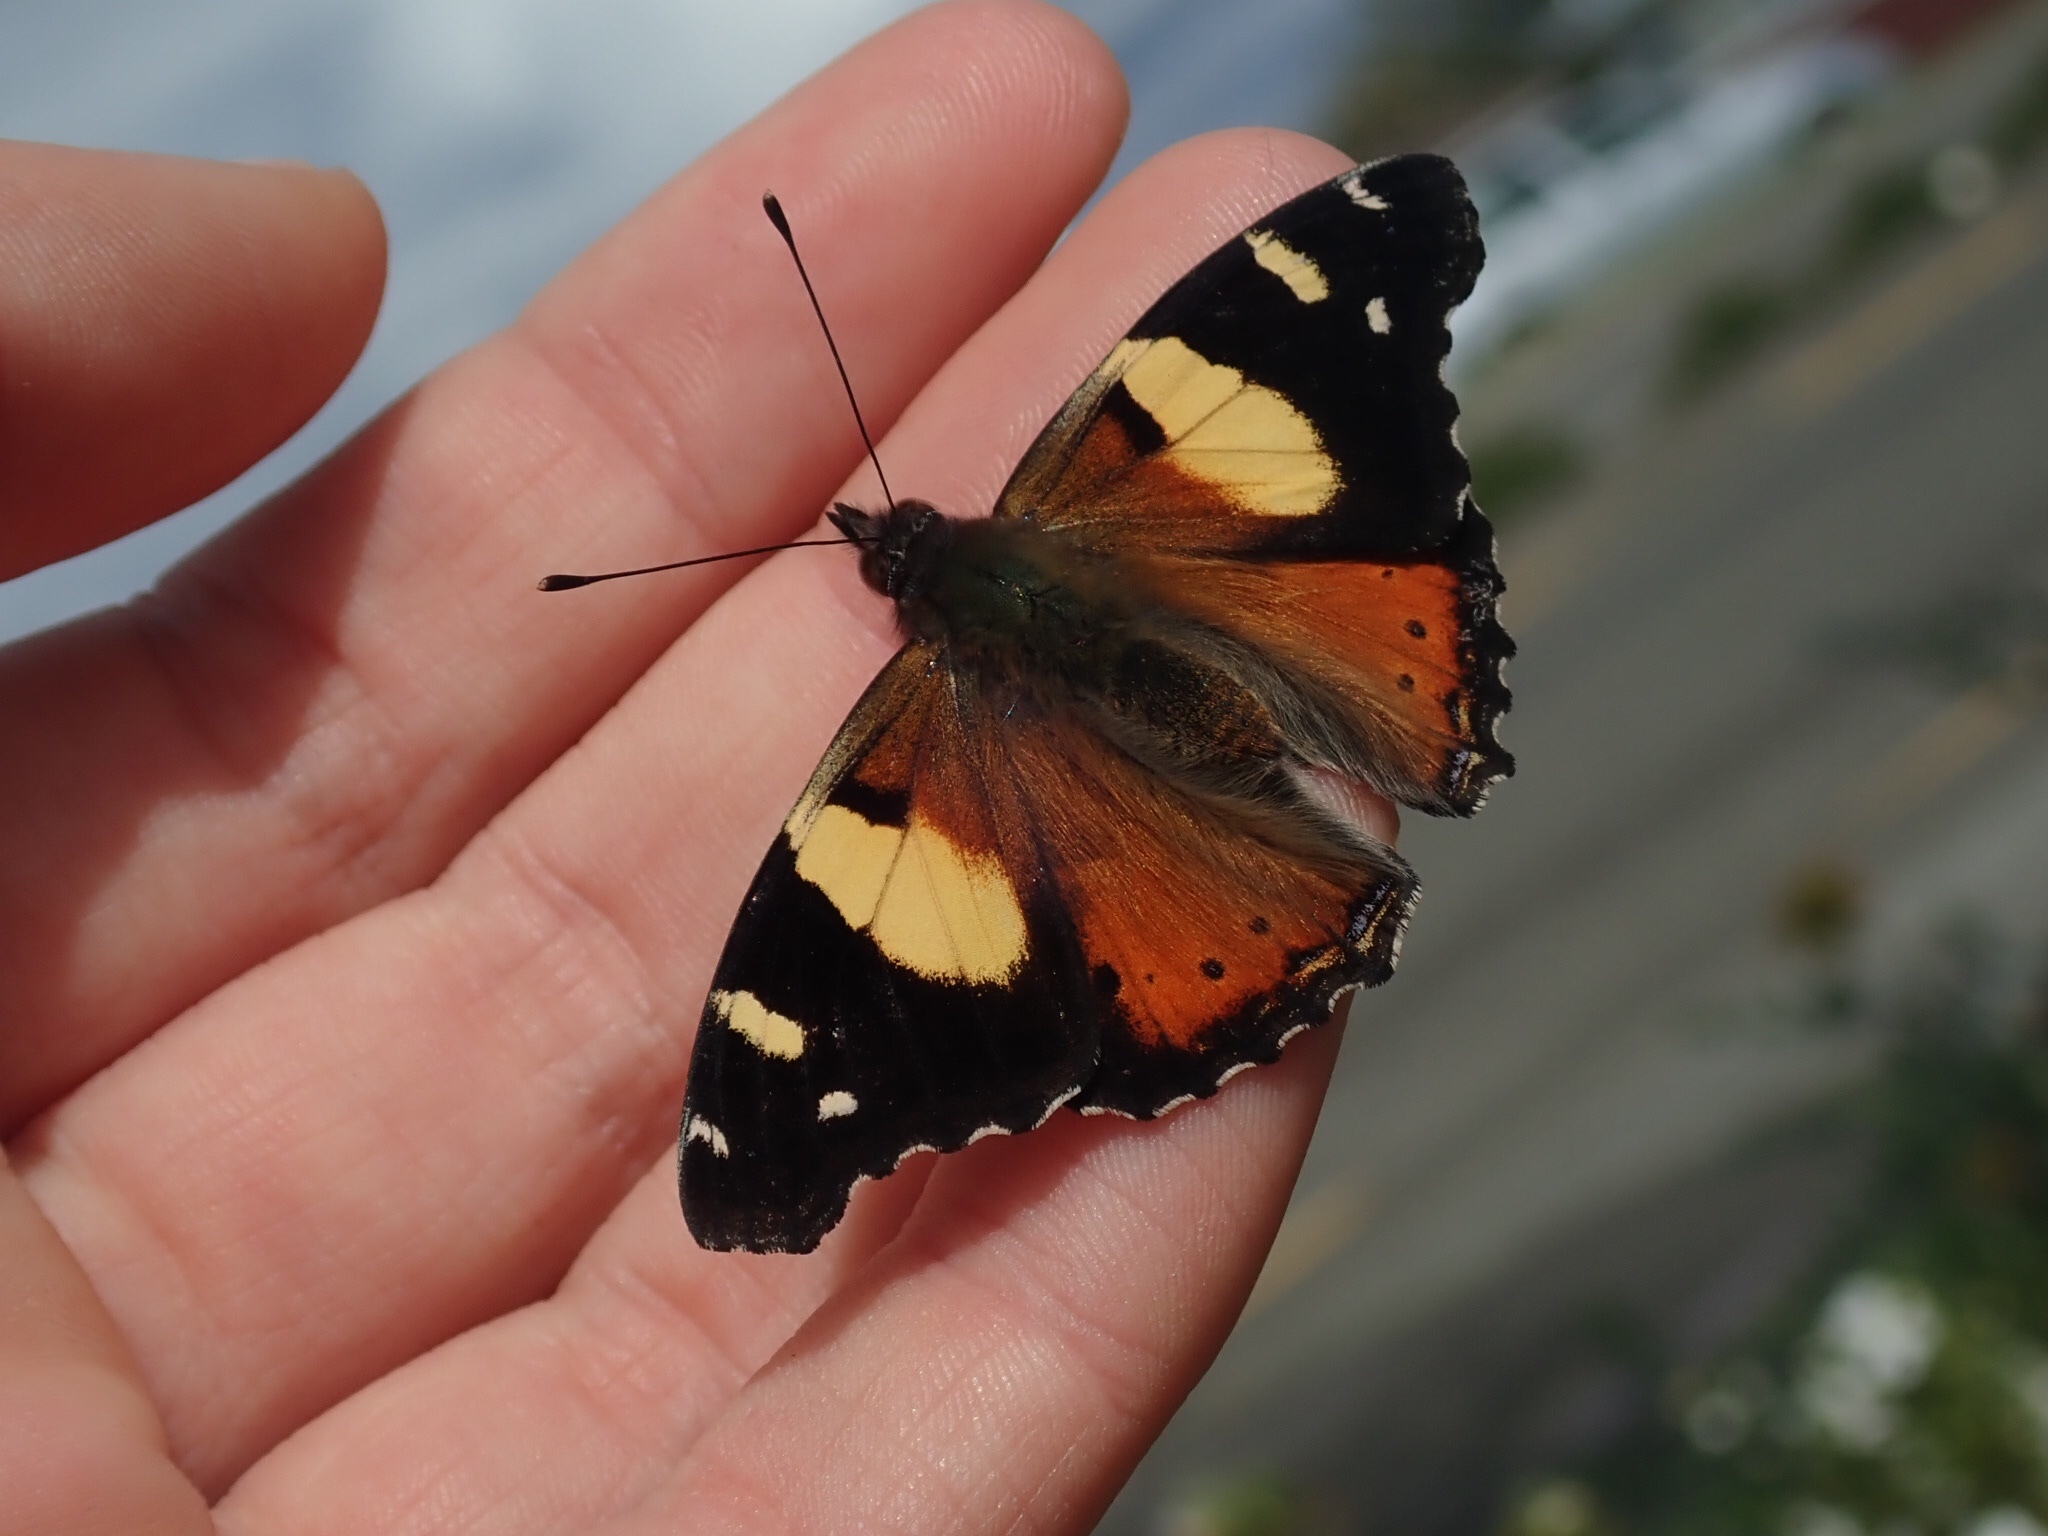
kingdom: Animalia
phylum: Arthropoda
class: Insecta
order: Lepidoptera
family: Nymphalidae
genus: Vanessa
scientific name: Vanessa itea
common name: Yellow admiral
